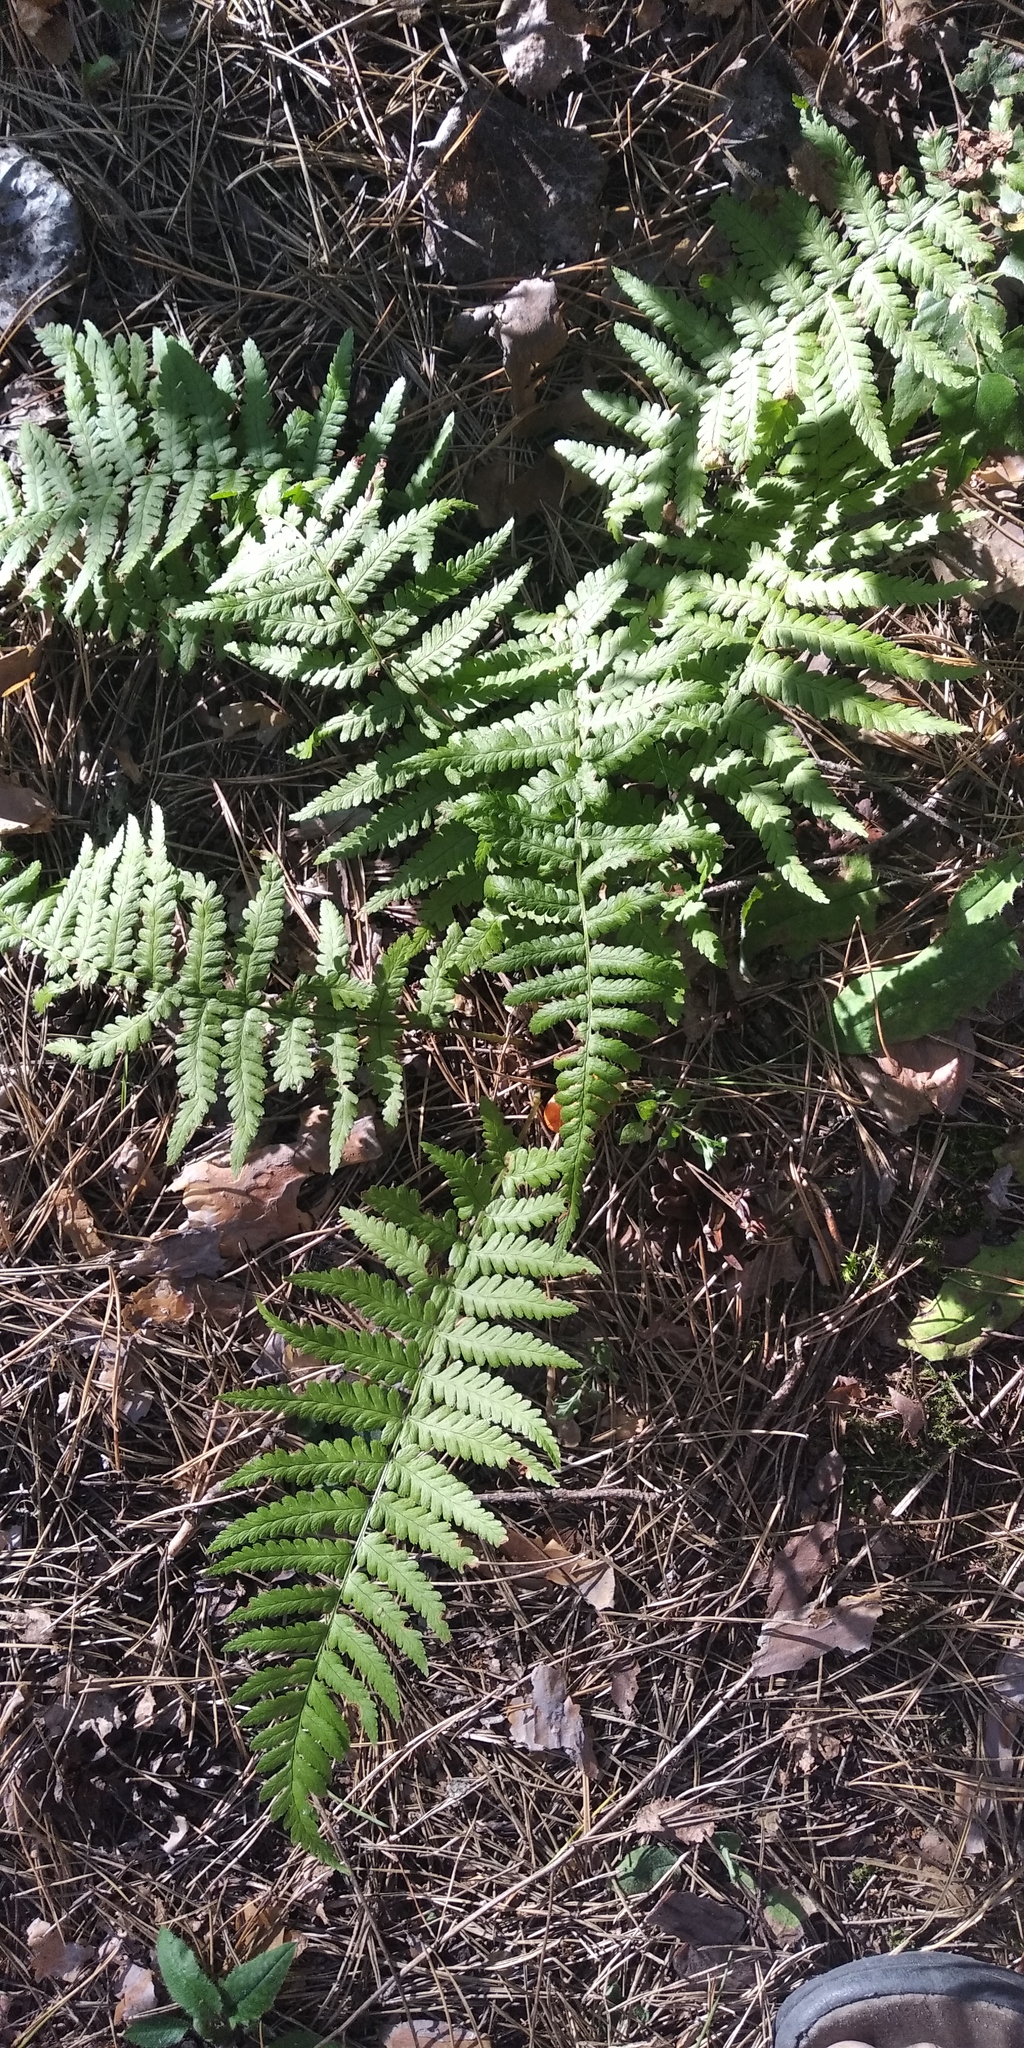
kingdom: Plantae
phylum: Tracheophyta
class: Polypodiopsida
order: Polypodiales
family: Dryopteridaceae
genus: Dryopteris
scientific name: Dryopteris filix-mas
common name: Male fern
